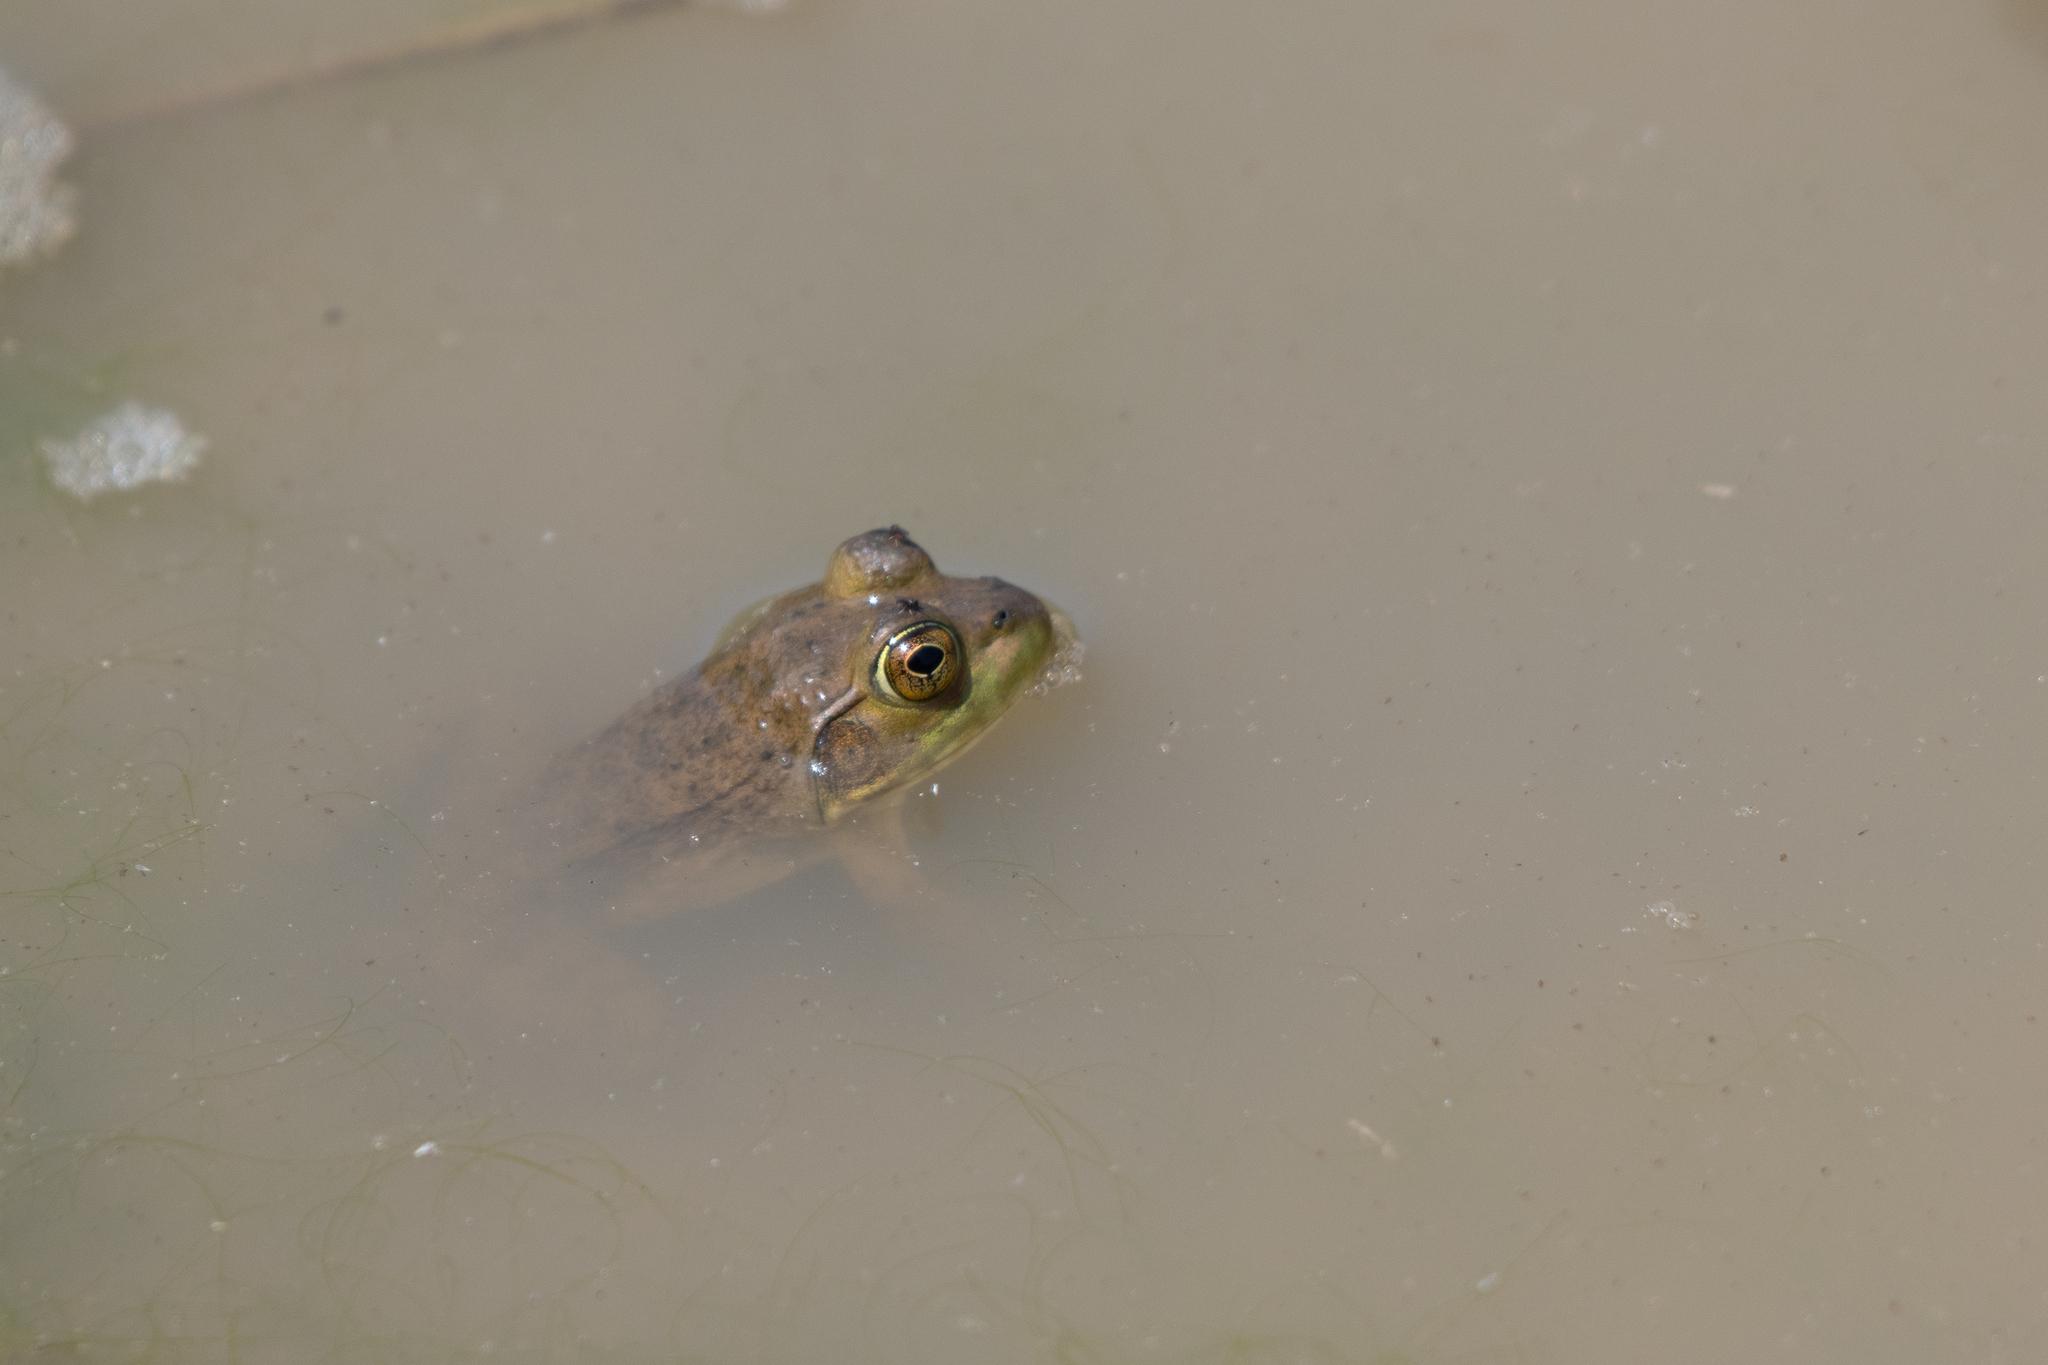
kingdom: Animalia
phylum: Chordata
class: Amphibia
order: Anura
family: Ranidae
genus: Lithobates
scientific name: Lithobates catesbeianus
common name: American bullfrog
